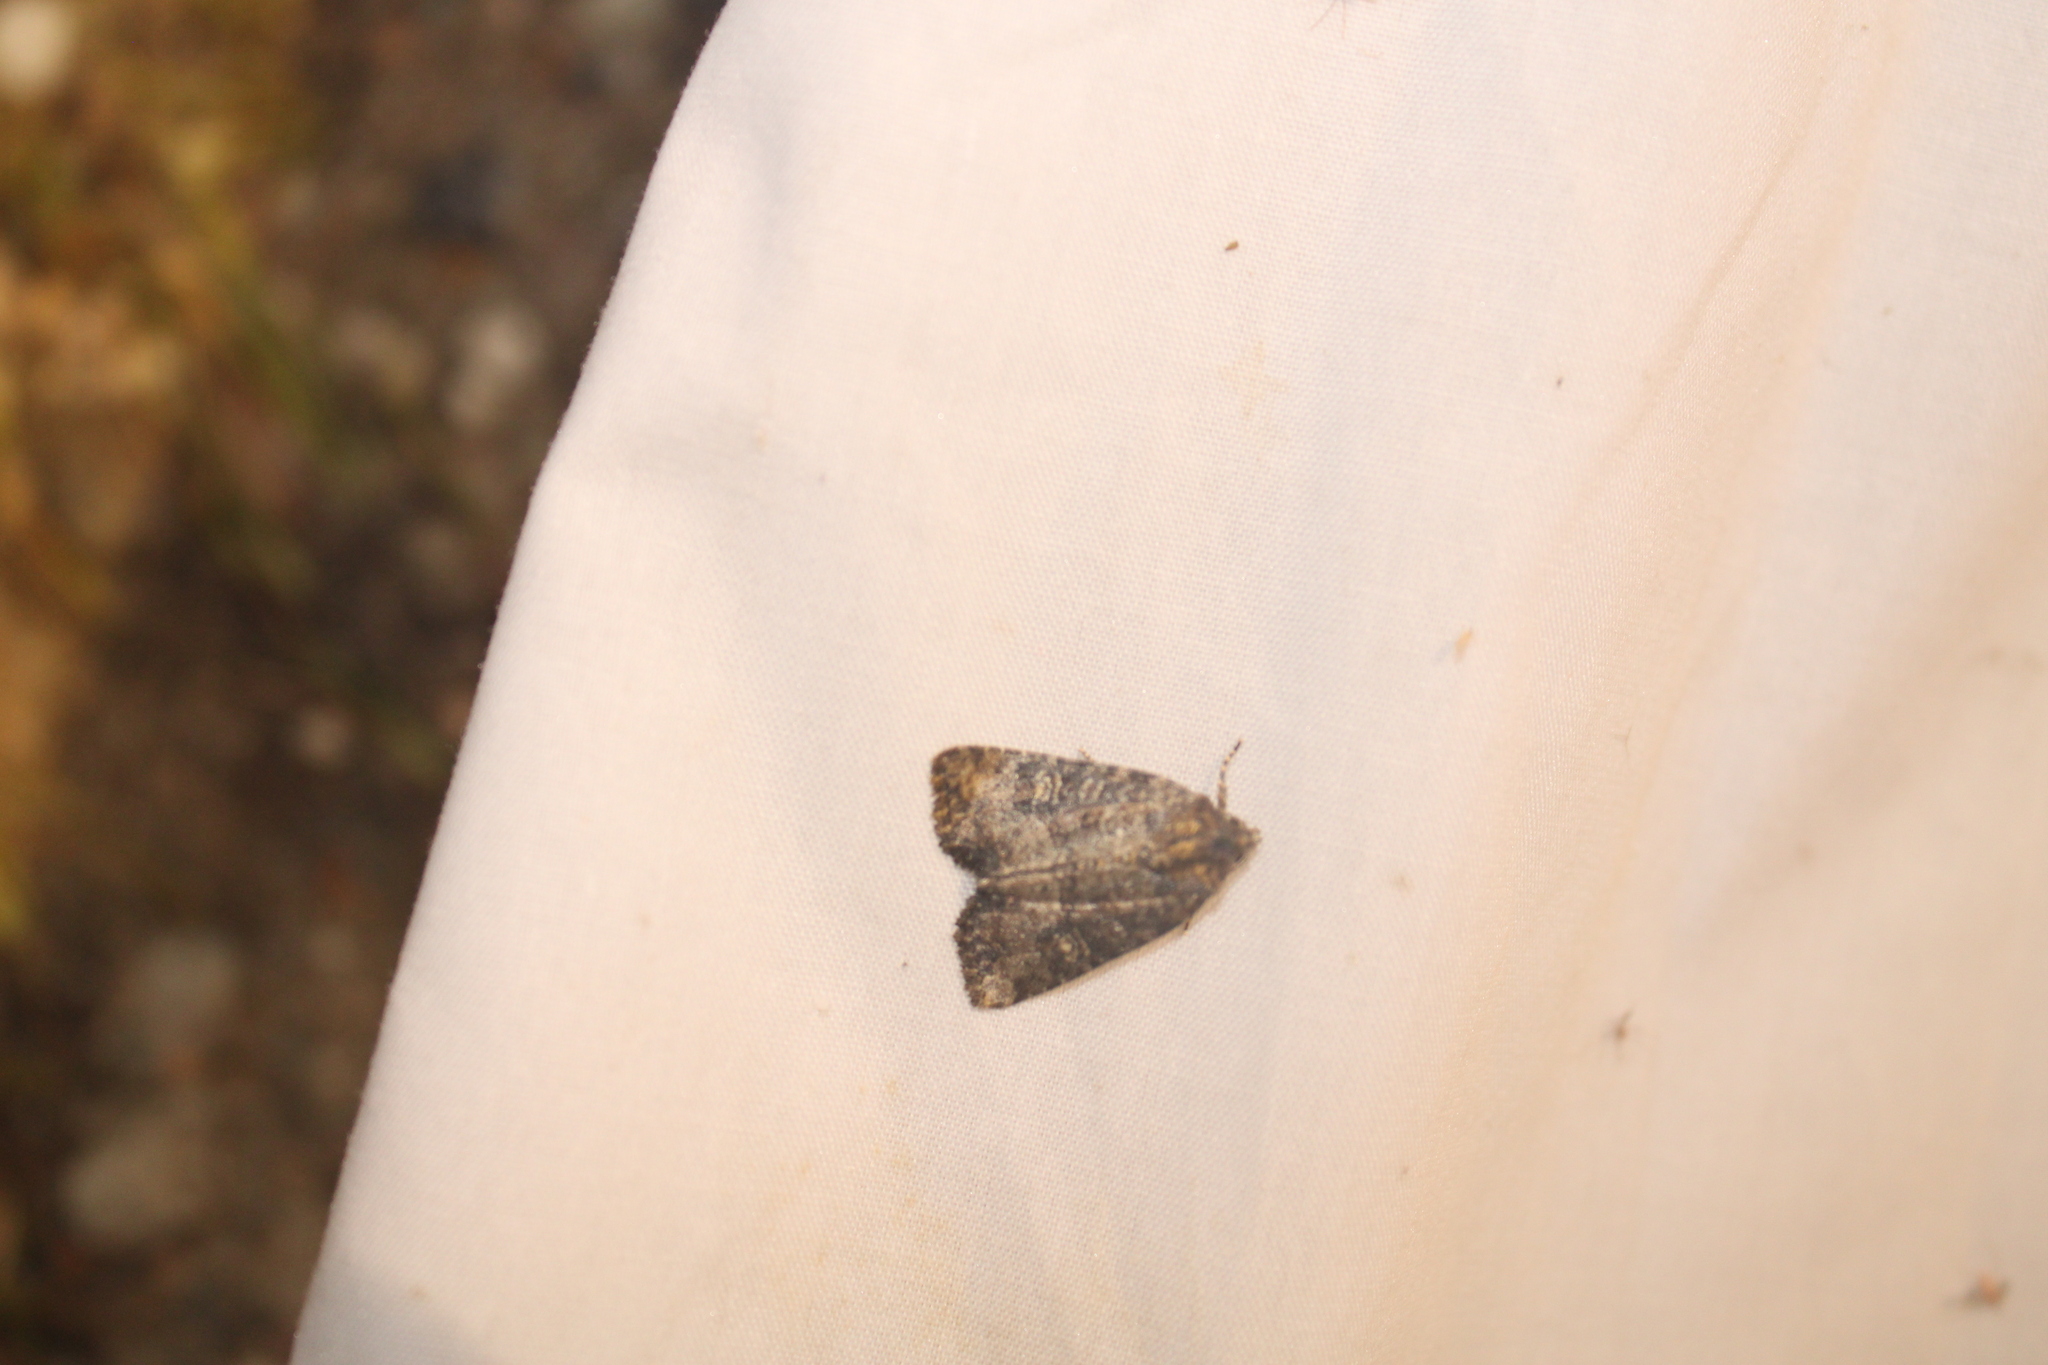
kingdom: Animalia
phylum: Arthropoda
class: Insecta
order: Lepidoptera
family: Noctuidae
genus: Mesapamea
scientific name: Mesapamea fractilinea
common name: Broken-lined brocade moth
